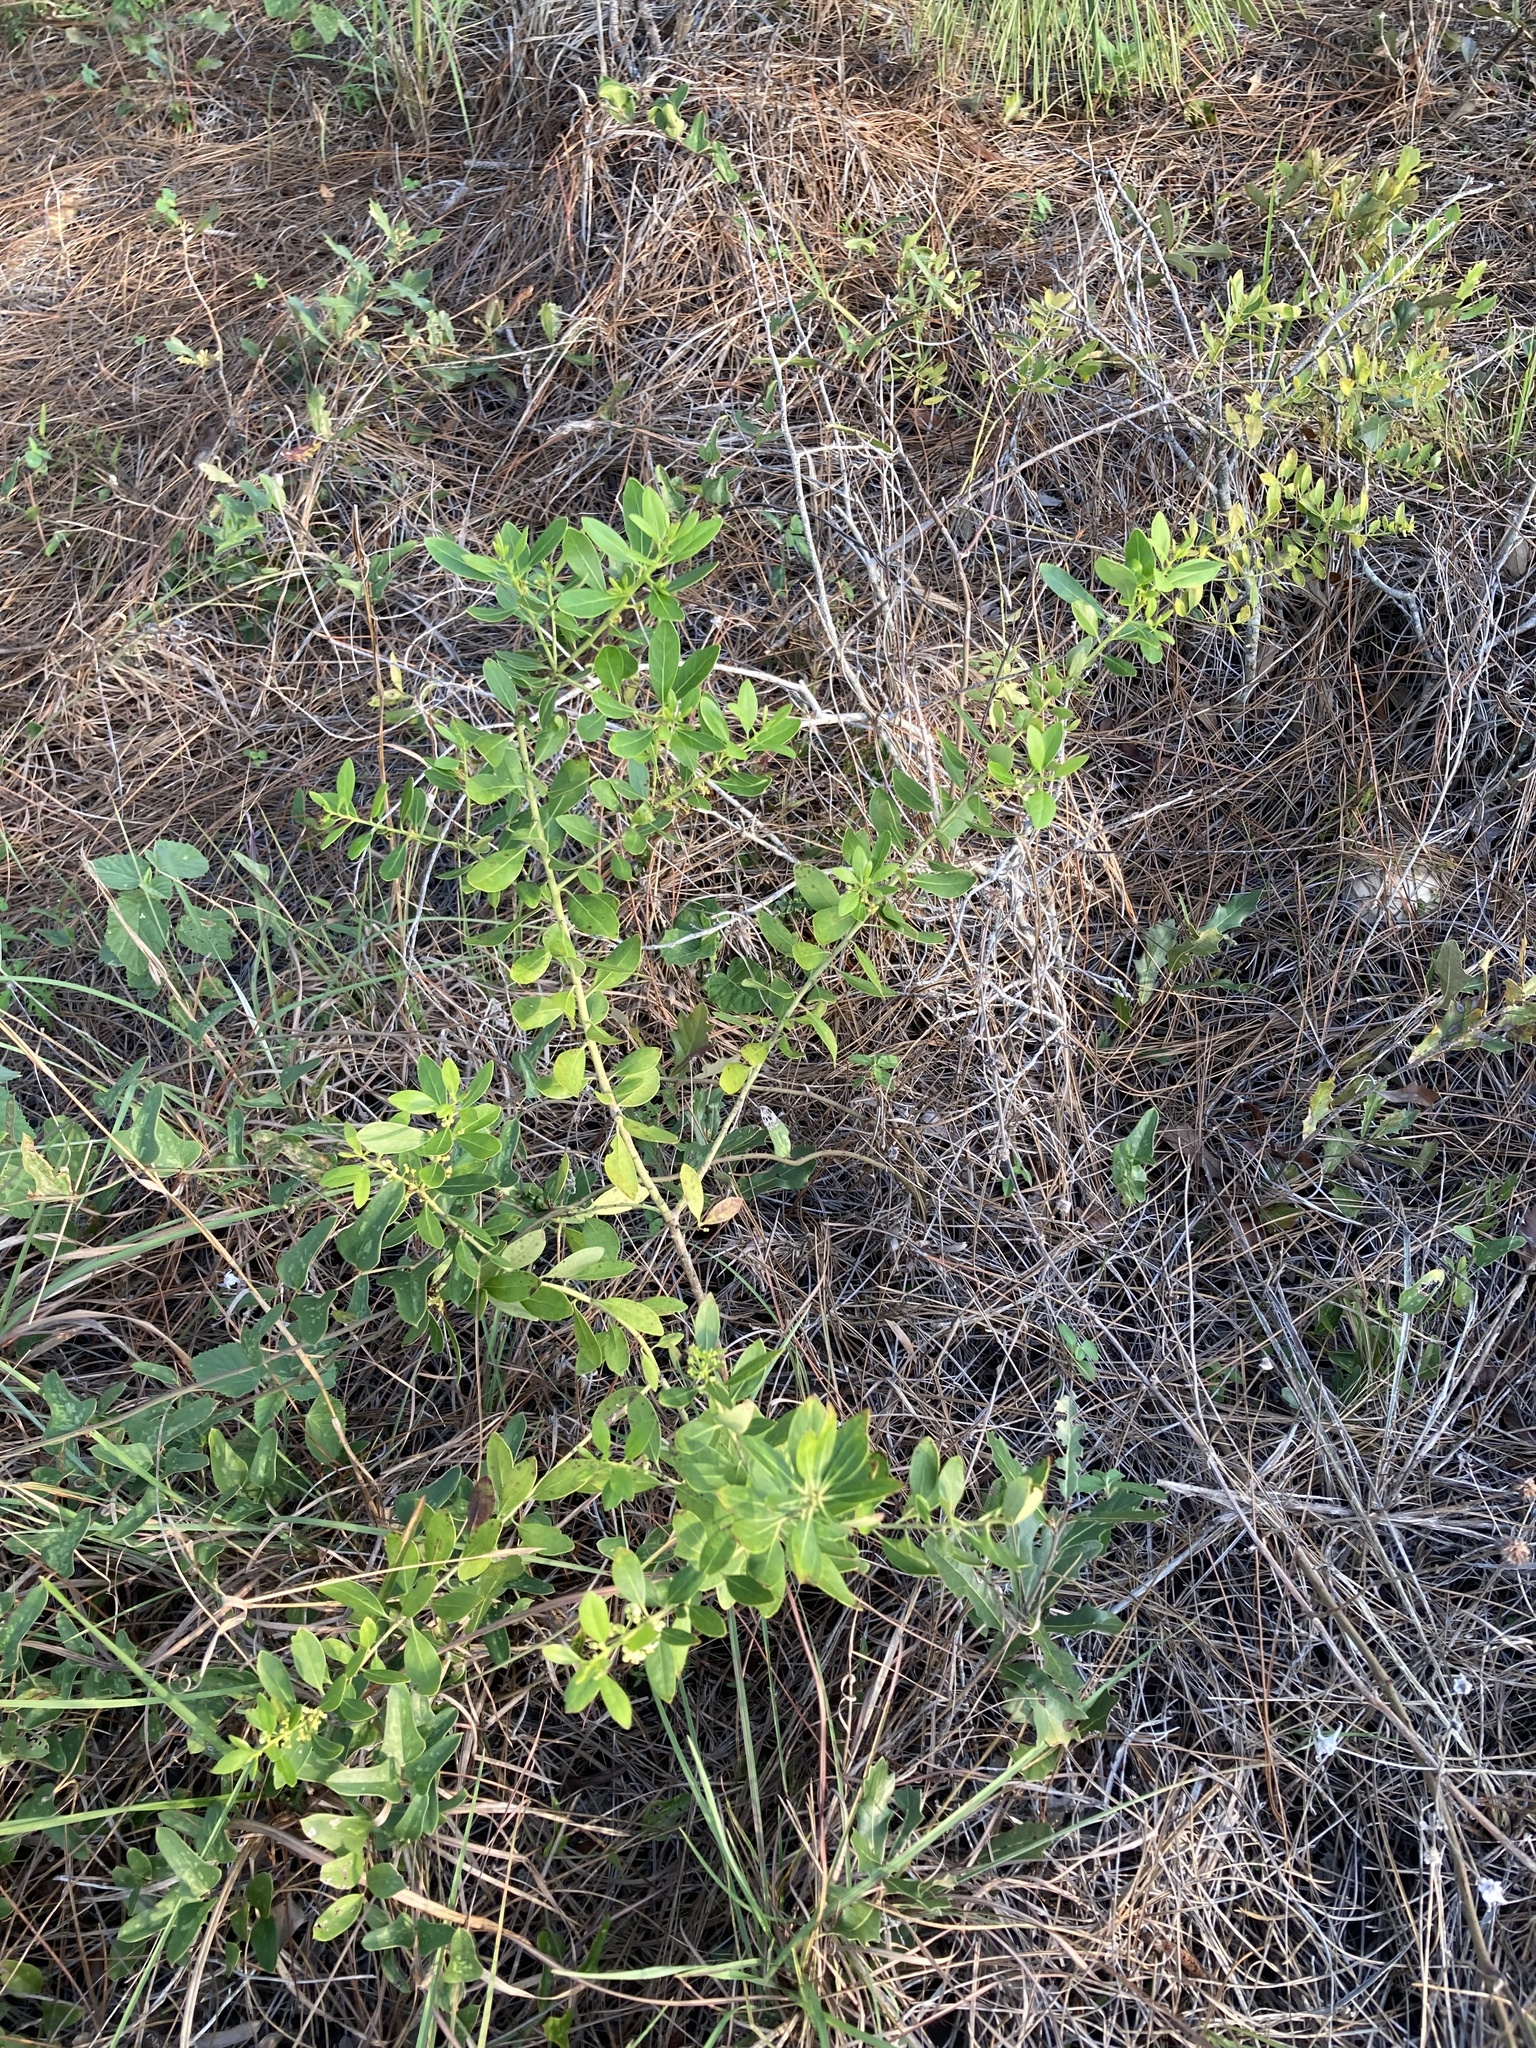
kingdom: Plantae
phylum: Tracheophyta
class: Magnoliopsida
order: Aquifoliales
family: Aquifoliaceae
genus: Ilex
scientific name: Ilex glabra
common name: Bitter gallberry
